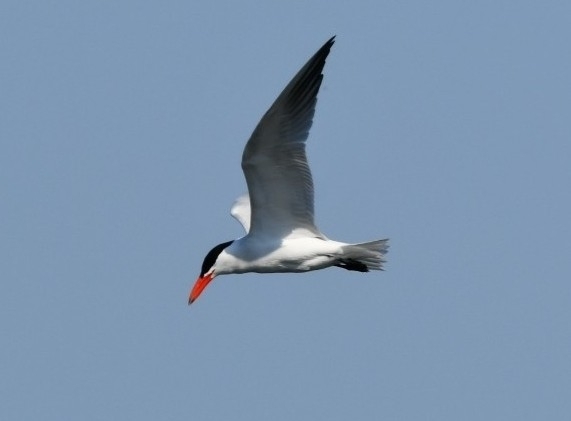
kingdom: Animalia
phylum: Chordata
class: Aves
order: Charadriiformes
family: Laridae
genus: Hydroprogne
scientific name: Hydroprogne caspia
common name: Caspian tern
